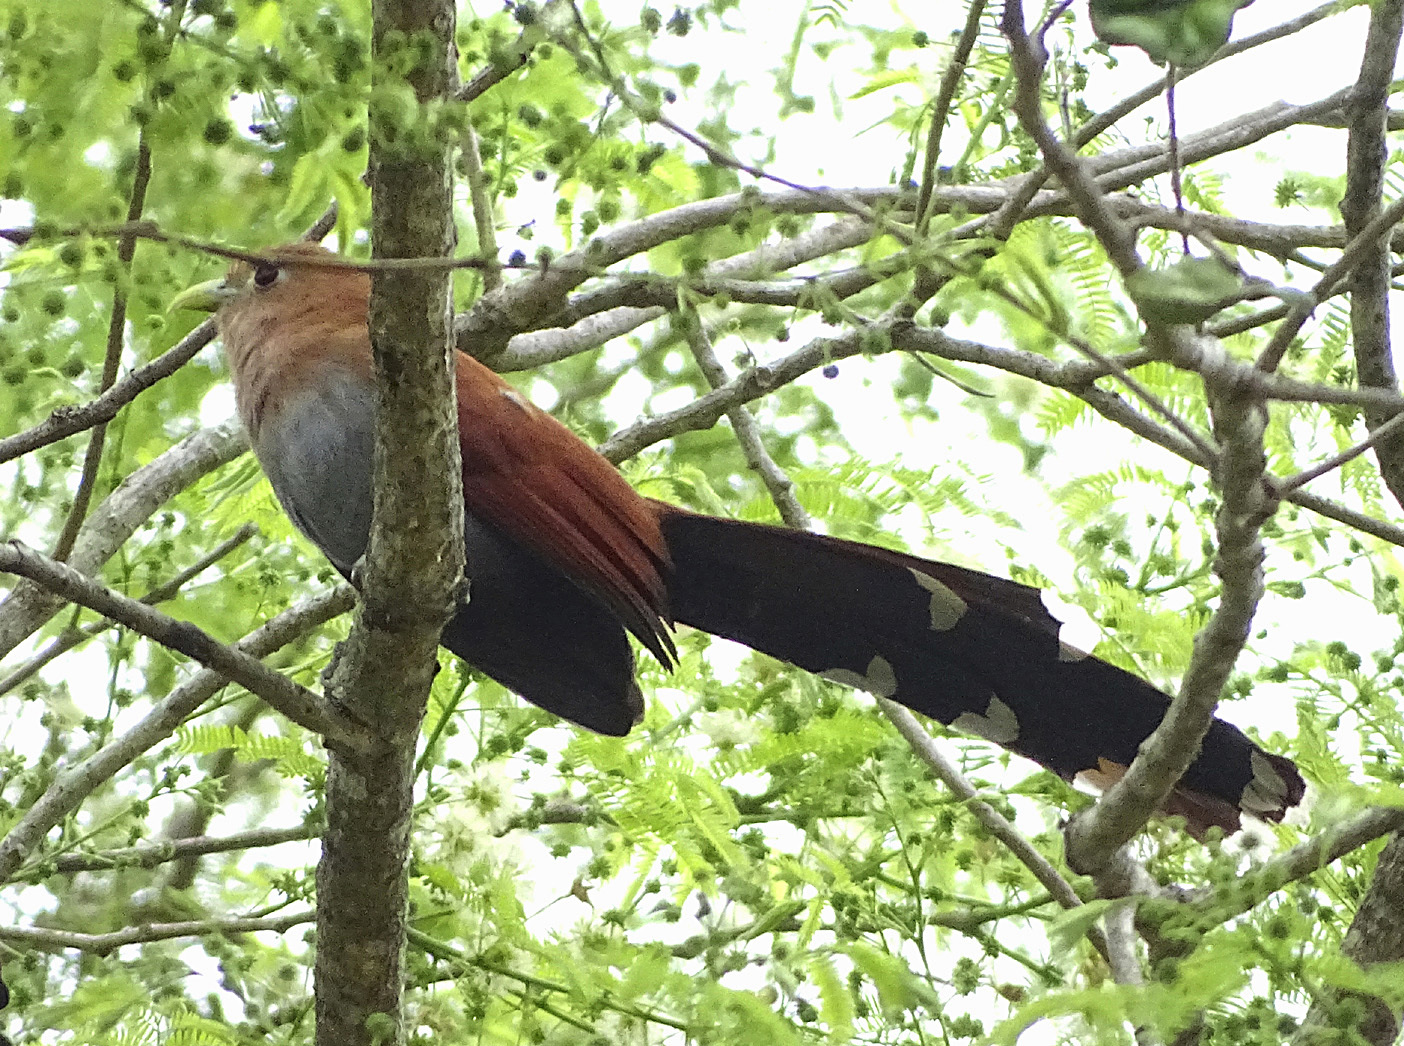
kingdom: Animalia
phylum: Chordata
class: Aves
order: Cuculiformes
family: Cuculidae
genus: Piaya
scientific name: Piaya cayana
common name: Squirrel cuckoo
